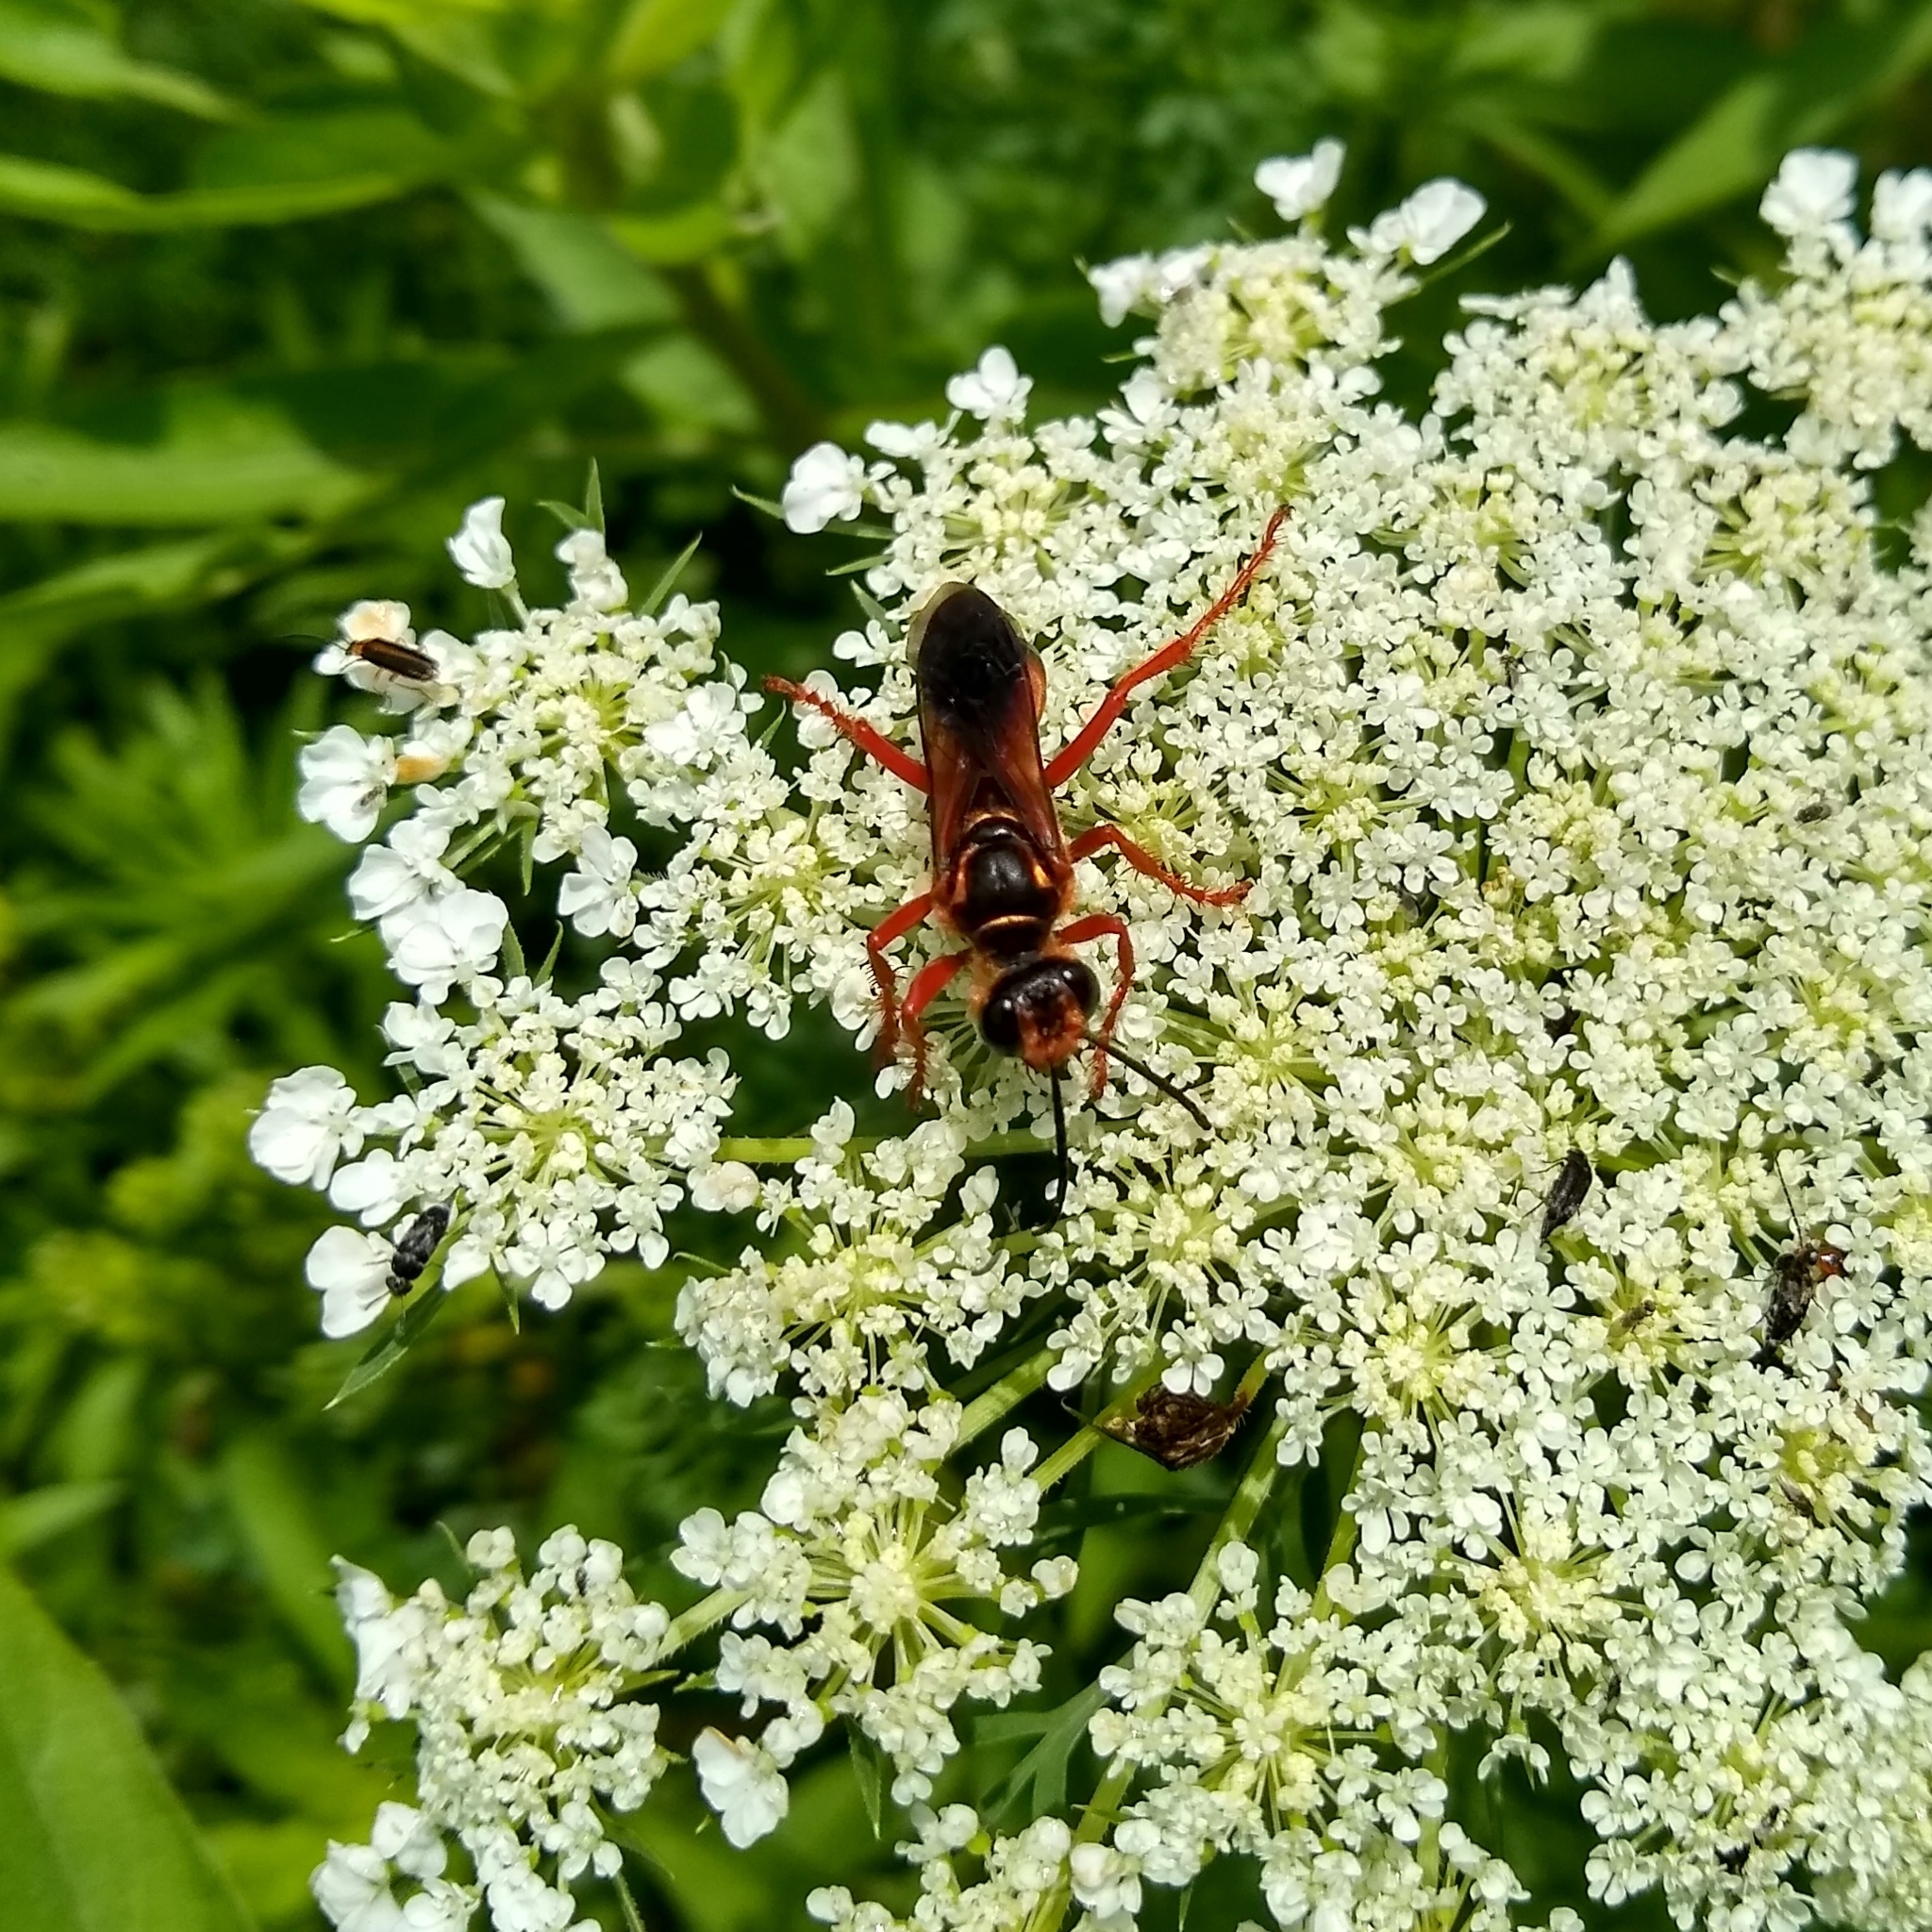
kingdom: Animalia
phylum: Arthropoda
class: Insecta
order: Hymenoptera
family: Sphecidae
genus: Sphex
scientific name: Sphex ichneumoneus
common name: Great golden digger wasp
